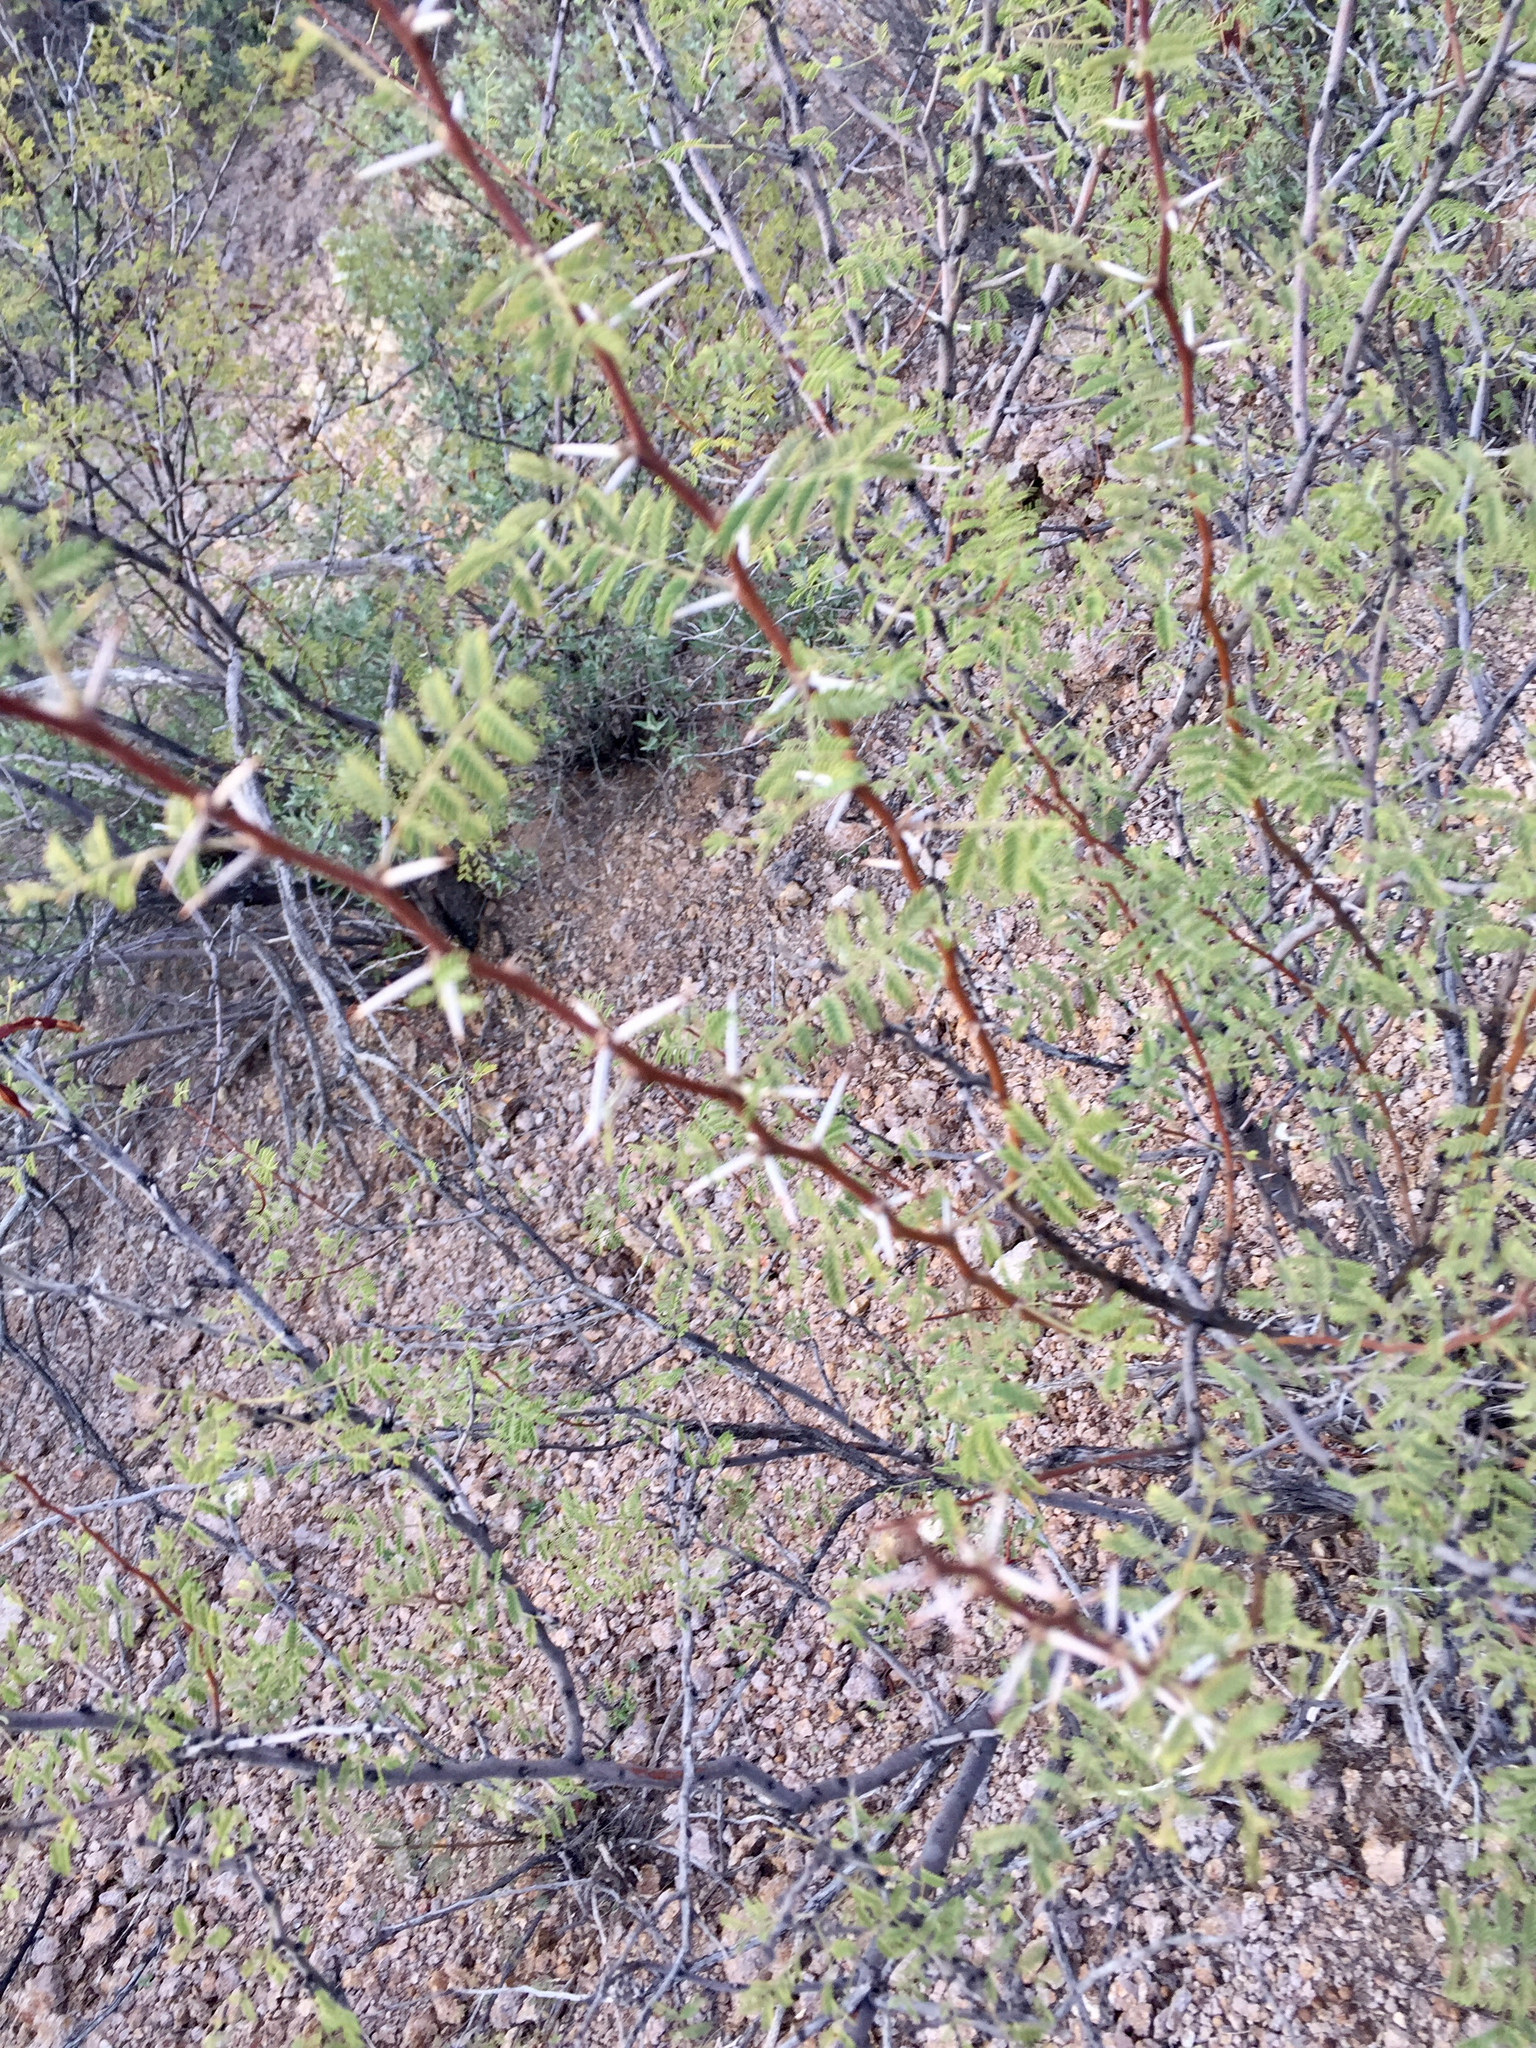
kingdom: Plantae
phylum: Tracheophyta
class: Magnoliopsida
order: Fabales
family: Fabaceae
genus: Vachellia
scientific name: Vachellia constricta
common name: Mescat acacia
